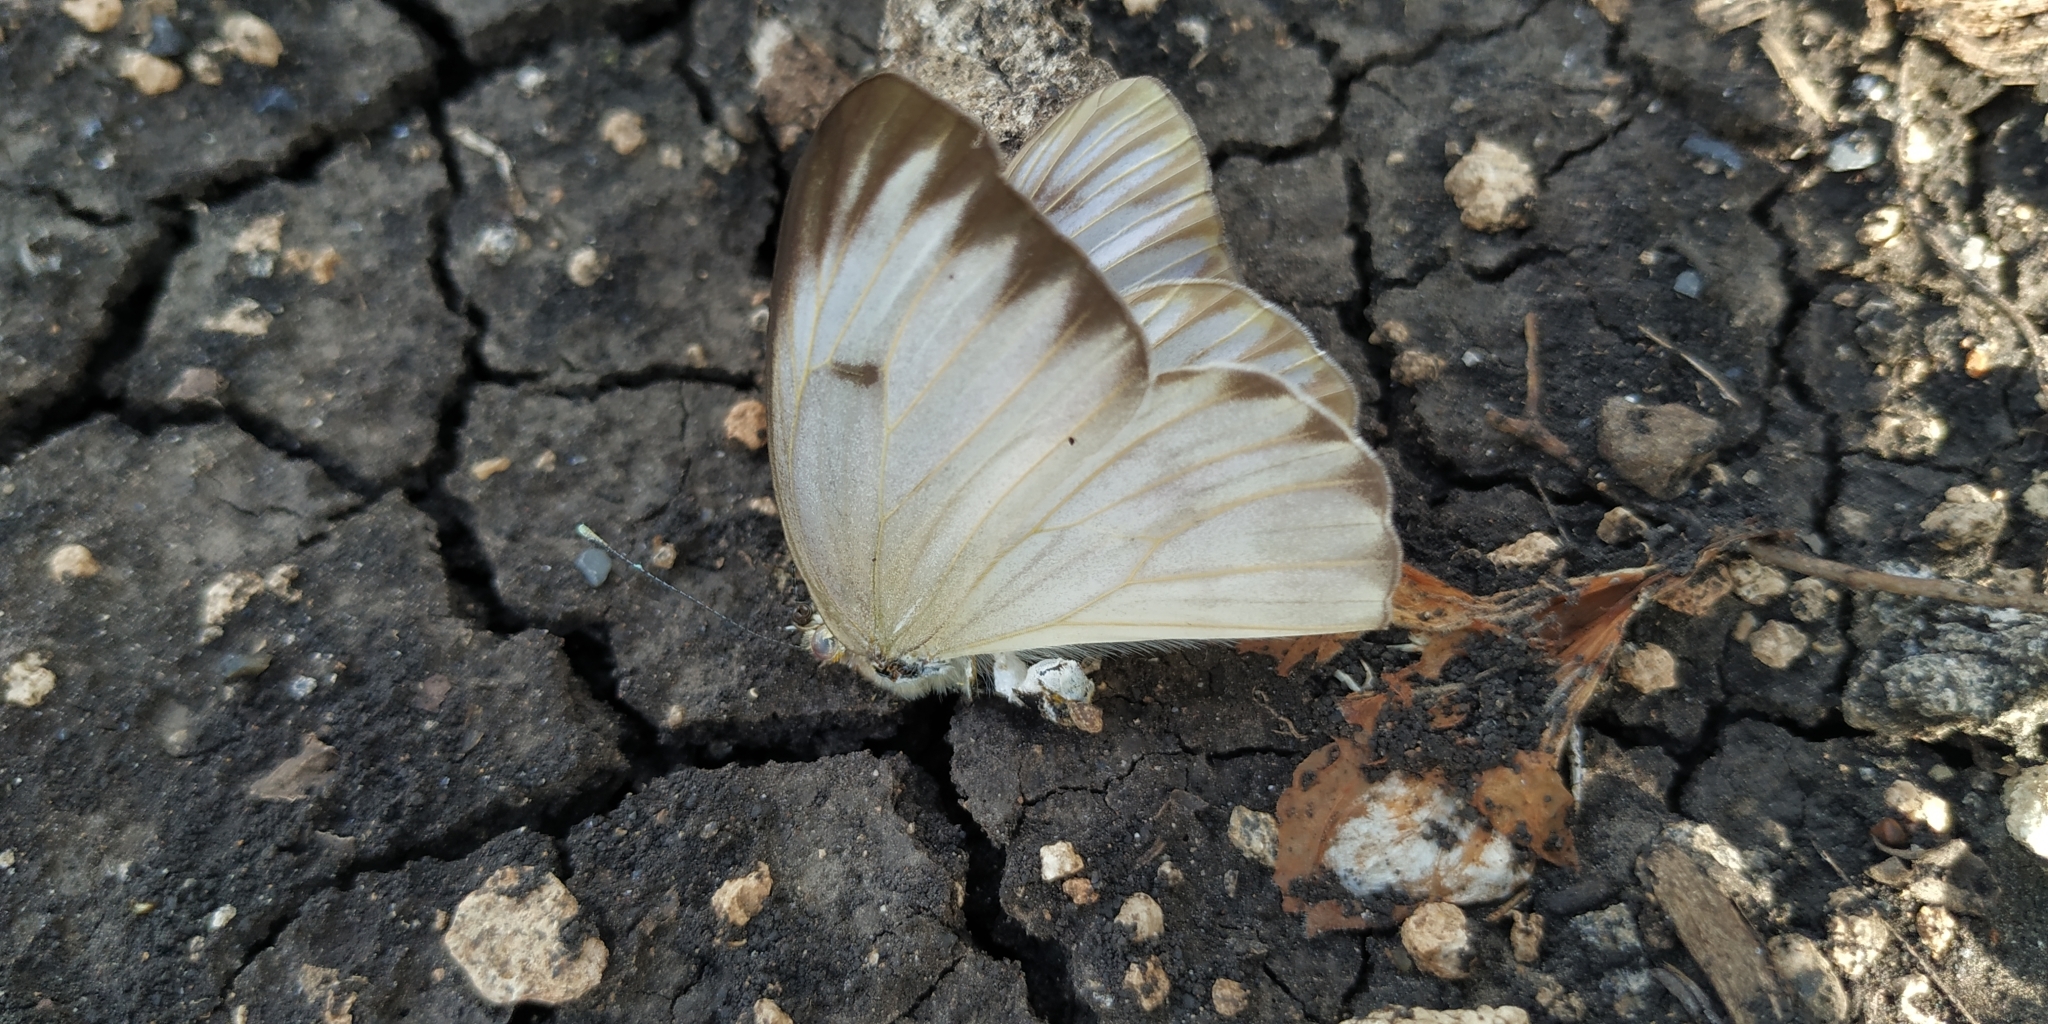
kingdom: Animalia
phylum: Arthropoda
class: Insecta
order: Lepidoptera
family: Pieridae
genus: Ascia
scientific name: Ascia monuste
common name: Great southern white
